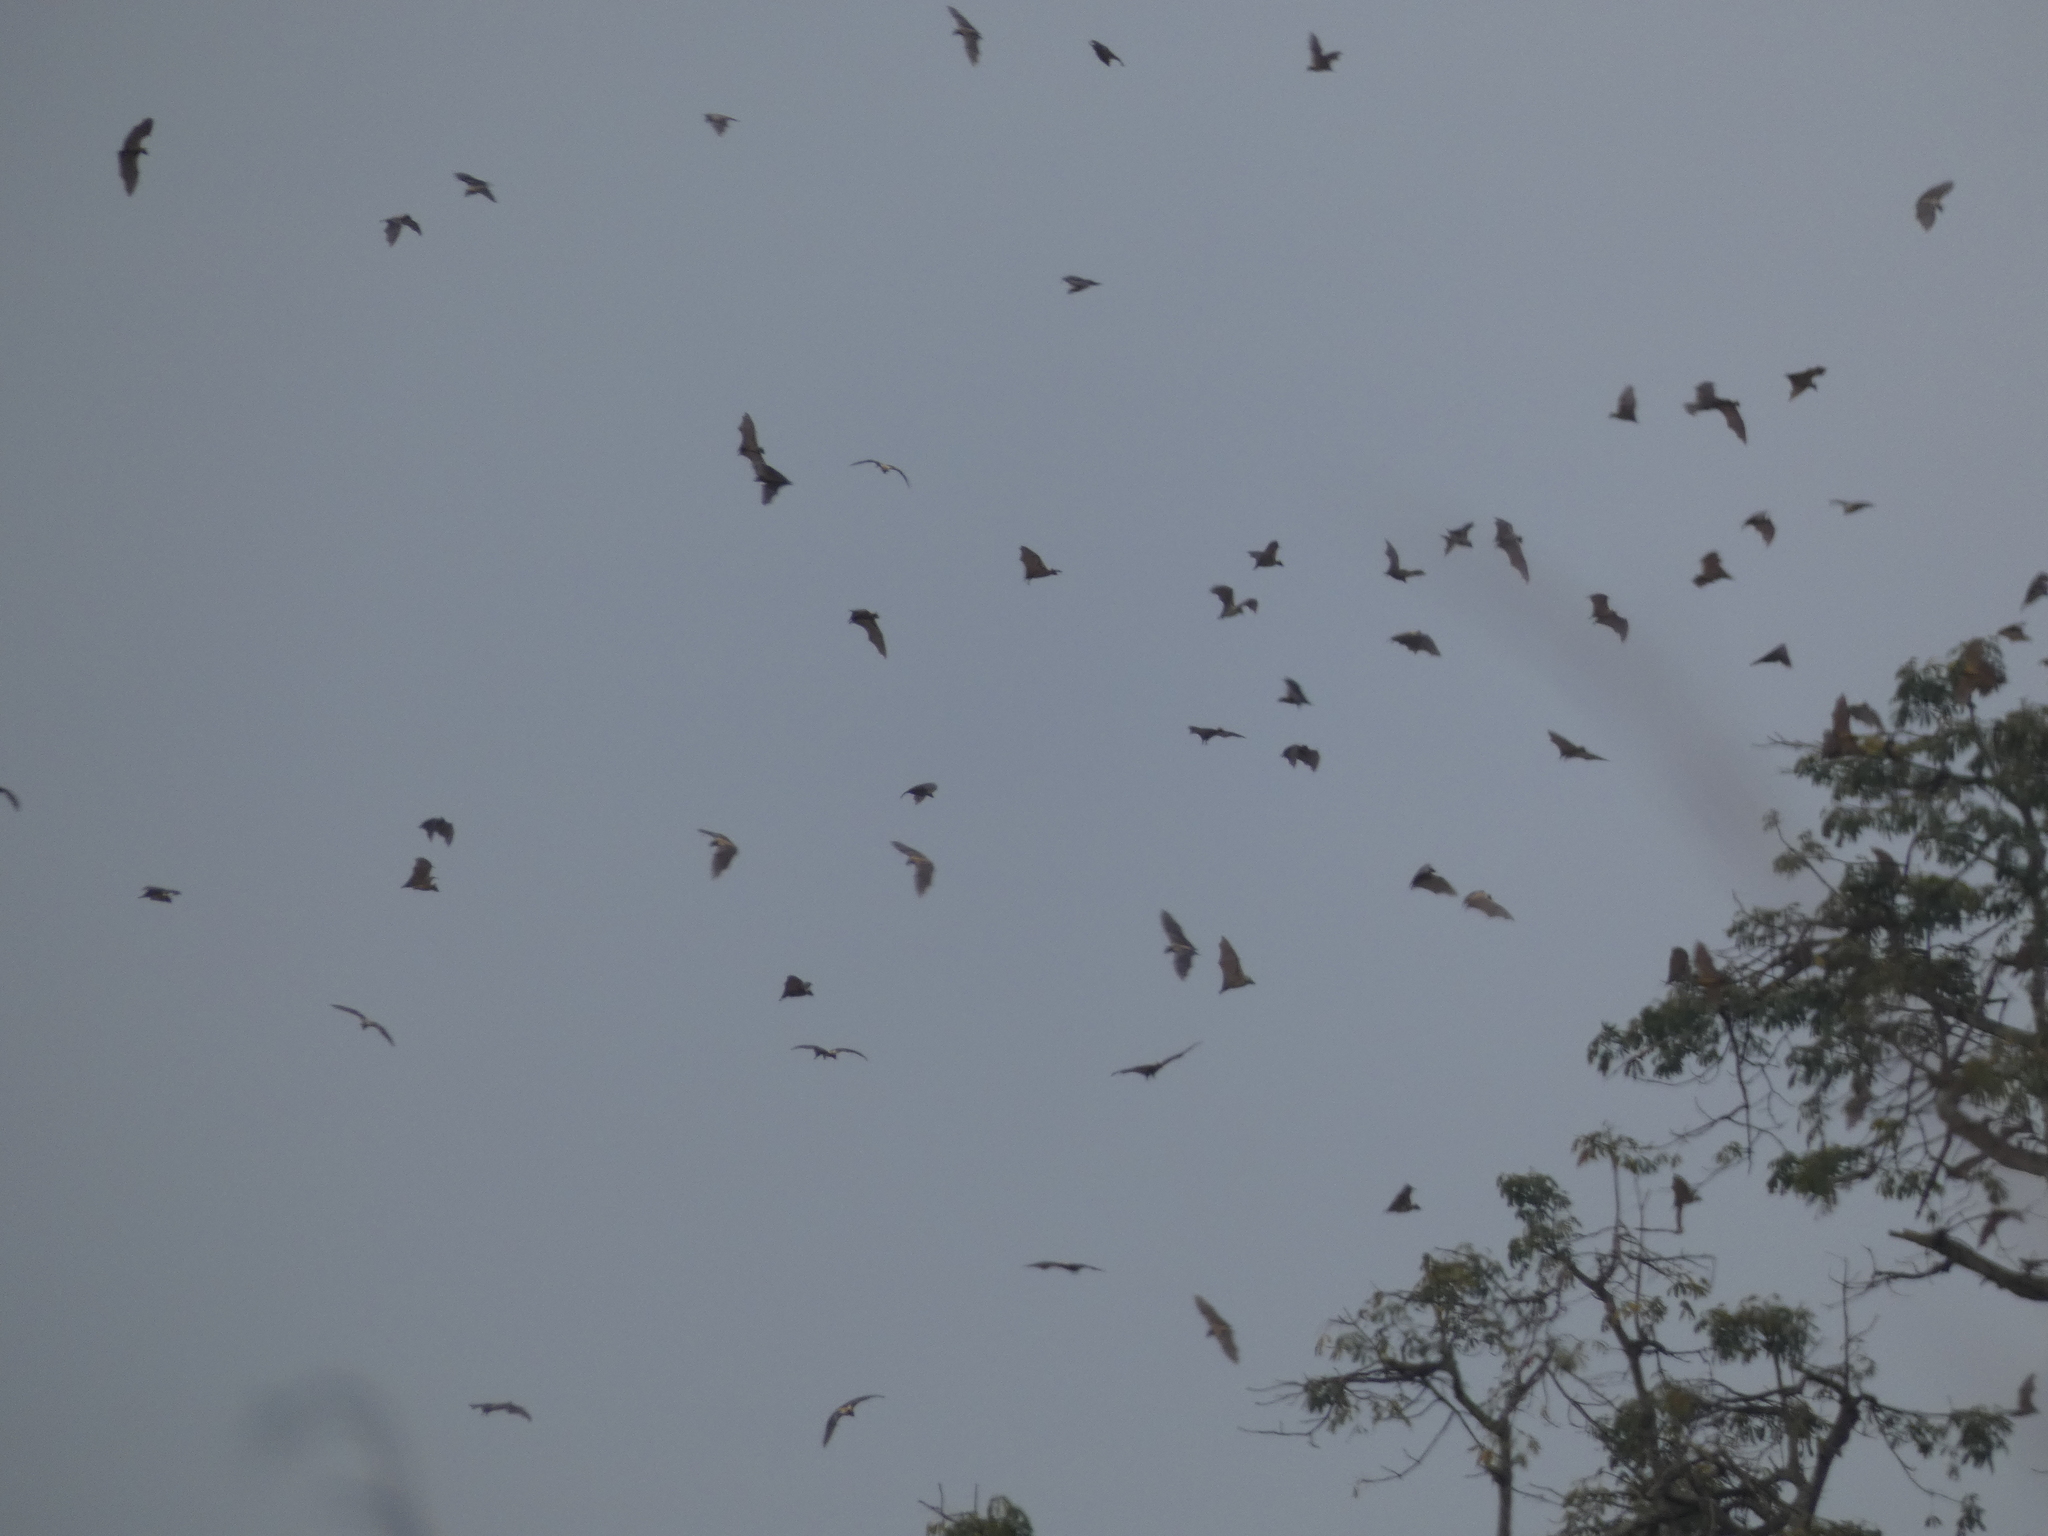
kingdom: Animalia
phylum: Chordata
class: Mammalia
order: Chiroptera
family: Pteropodidae
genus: Eidolon
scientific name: Eidolon helvum
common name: Straw-colored fruit bat
